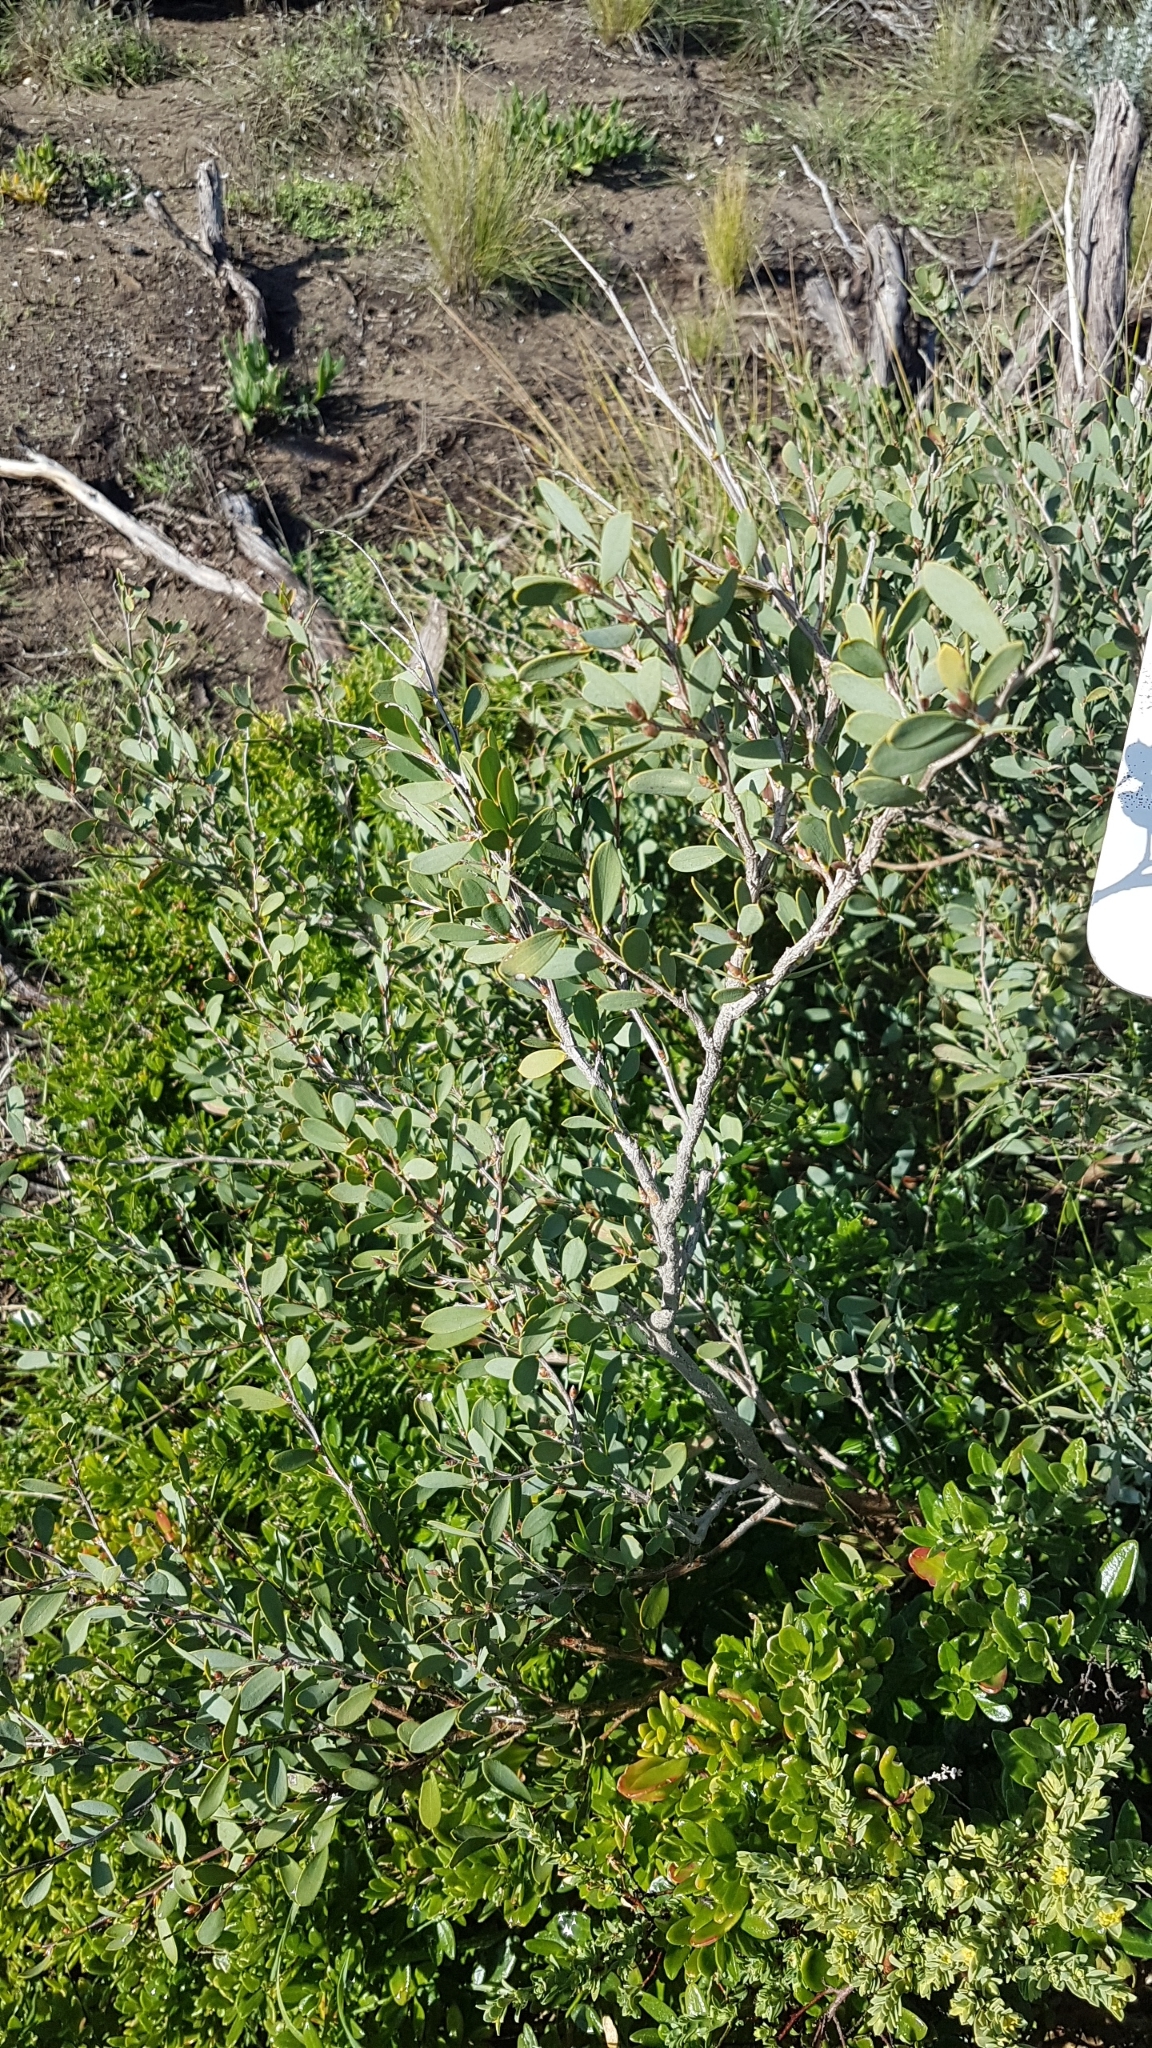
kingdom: Plantae
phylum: Tracheophyta
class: Magnoliopsida
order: Myrtales
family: Myrtaceae
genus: Leptospermum
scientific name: Leptospermum laevigatum
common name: Australian teatree
